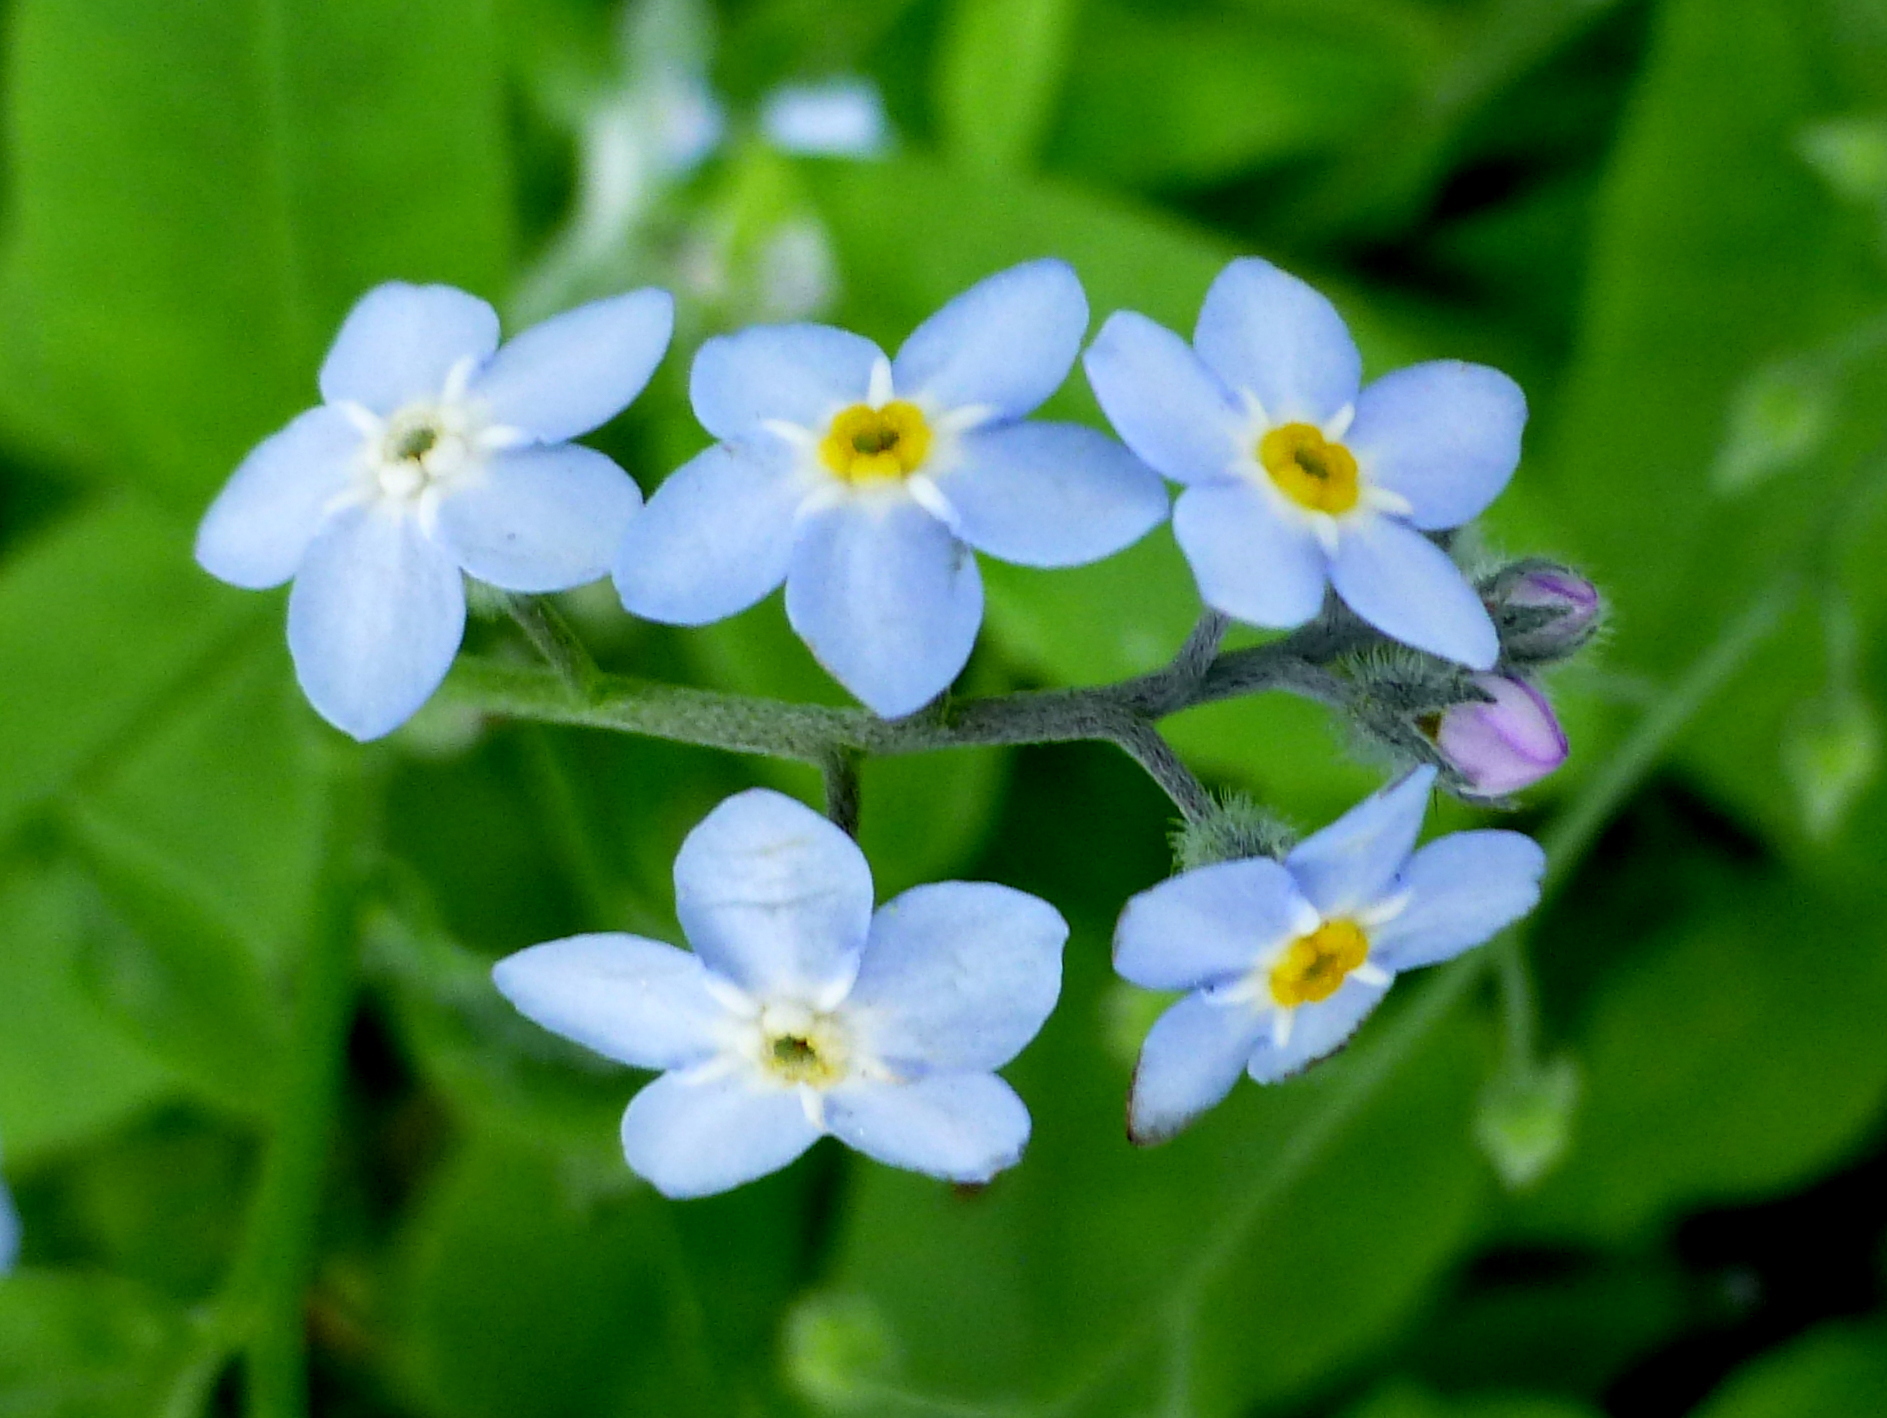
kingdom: Plantae
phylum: Tracheophyta
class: Magnoliopsida
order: Boraginales
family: Boraginaceae
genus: Myosotis
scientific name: Myosotis sylvatica
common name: Wood forget-me-not
